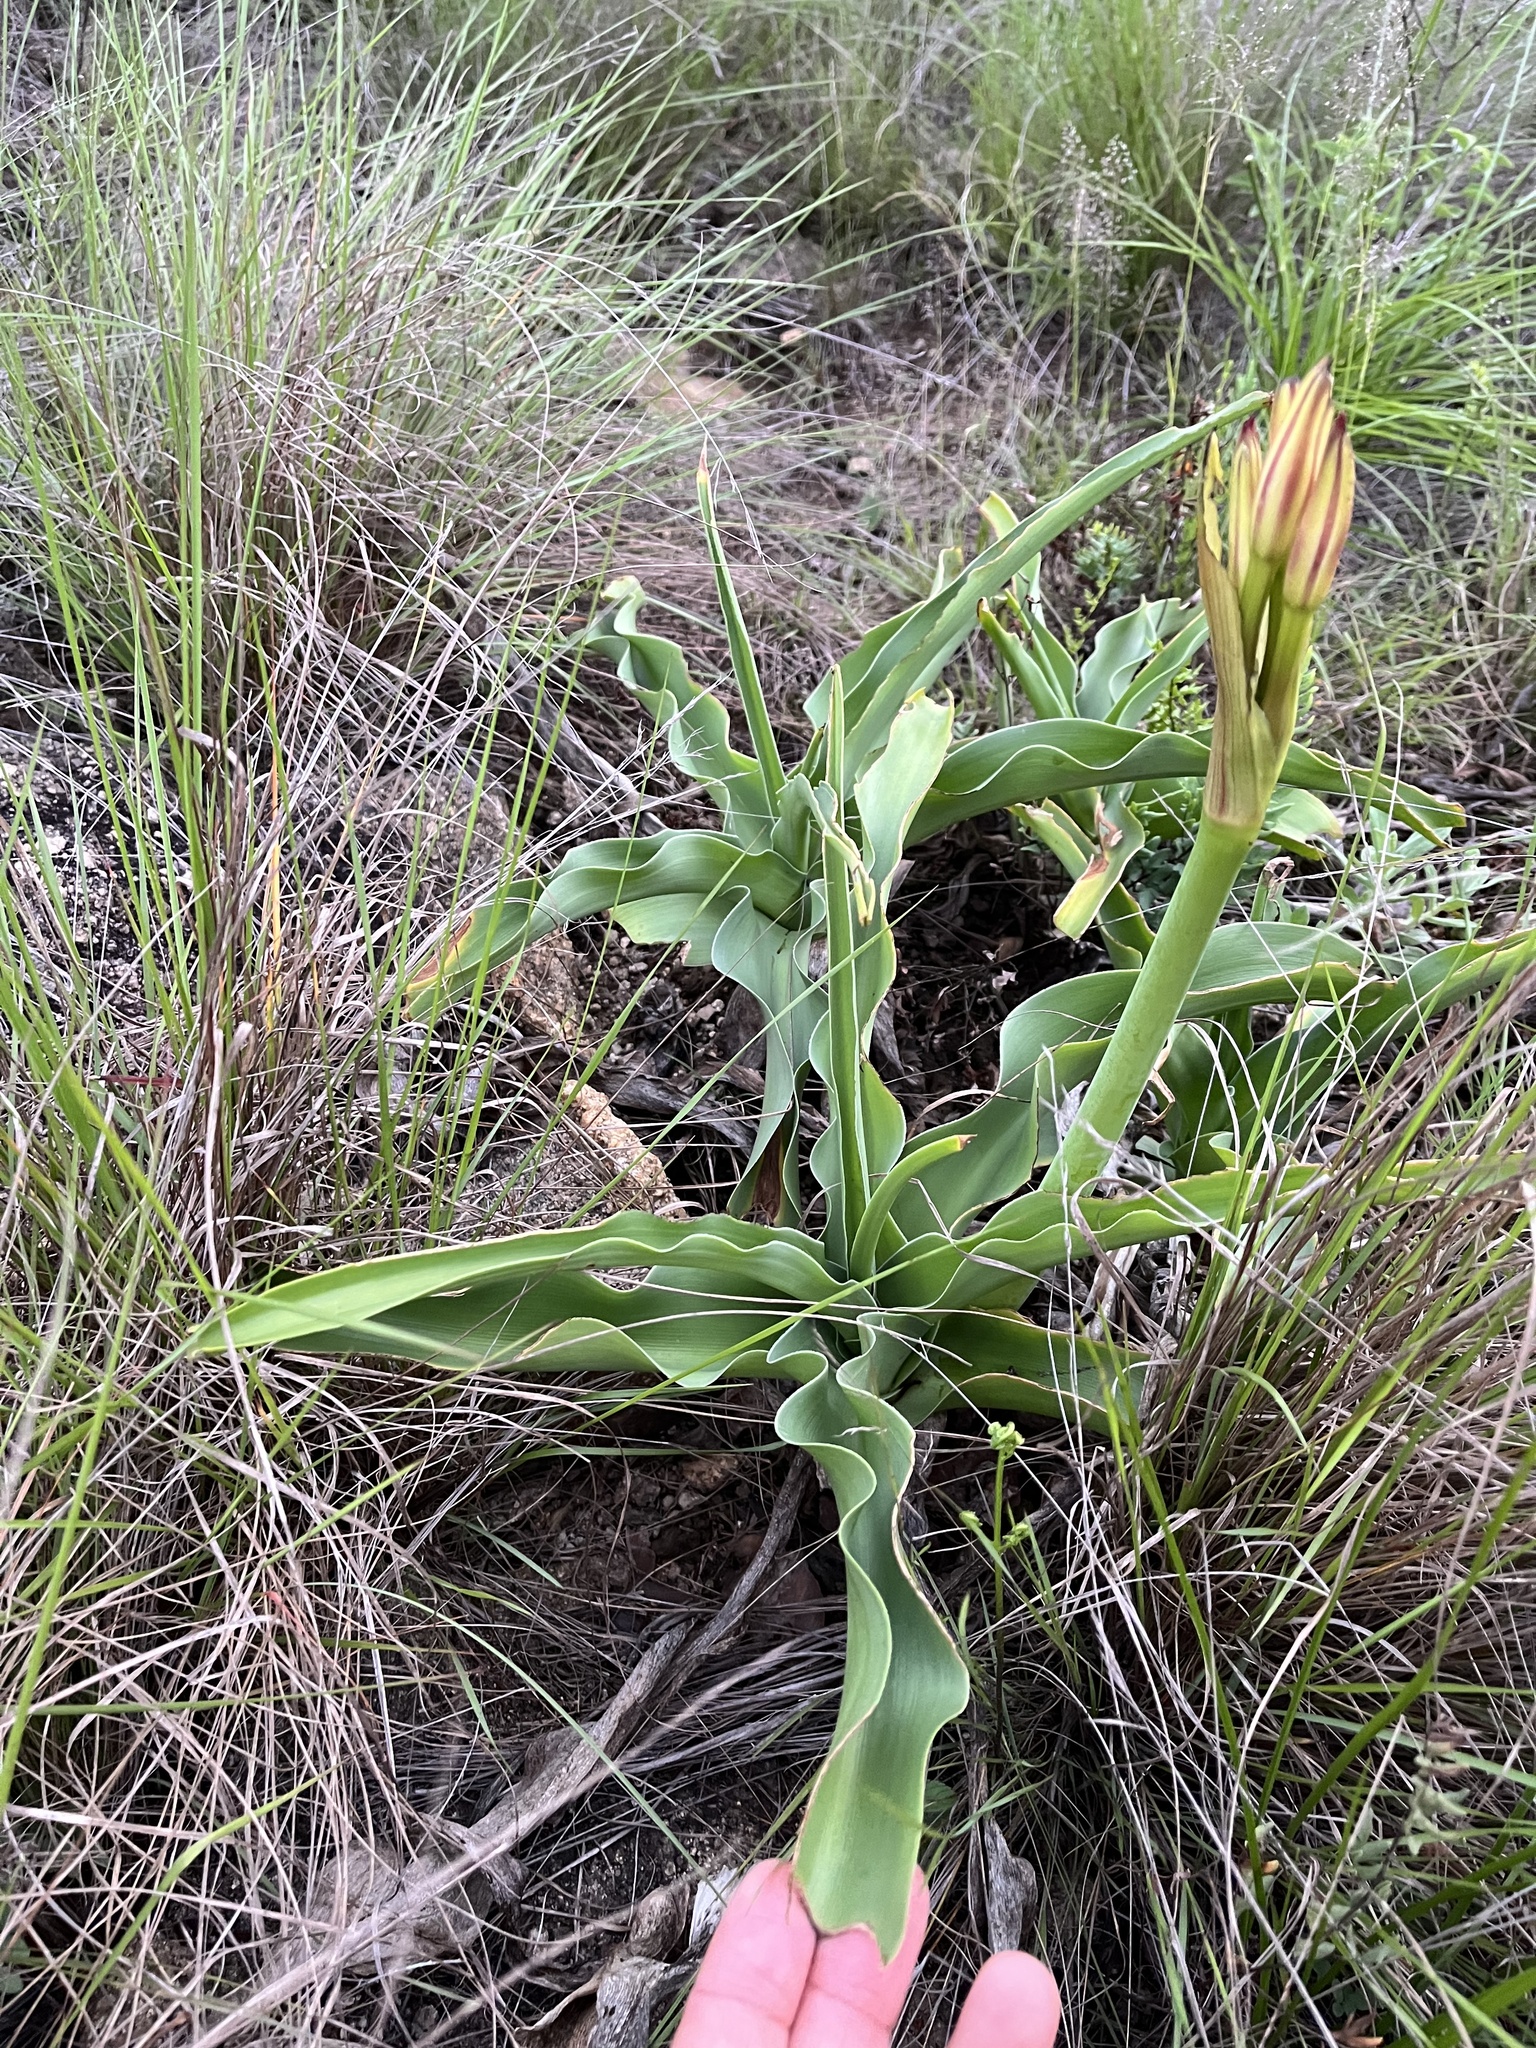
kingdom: Plantae
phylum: Tracheophyta
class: Liliopsida
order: Asparagales
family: Amaryllidaceae
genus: Crinum
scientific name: Crinum macowanii
